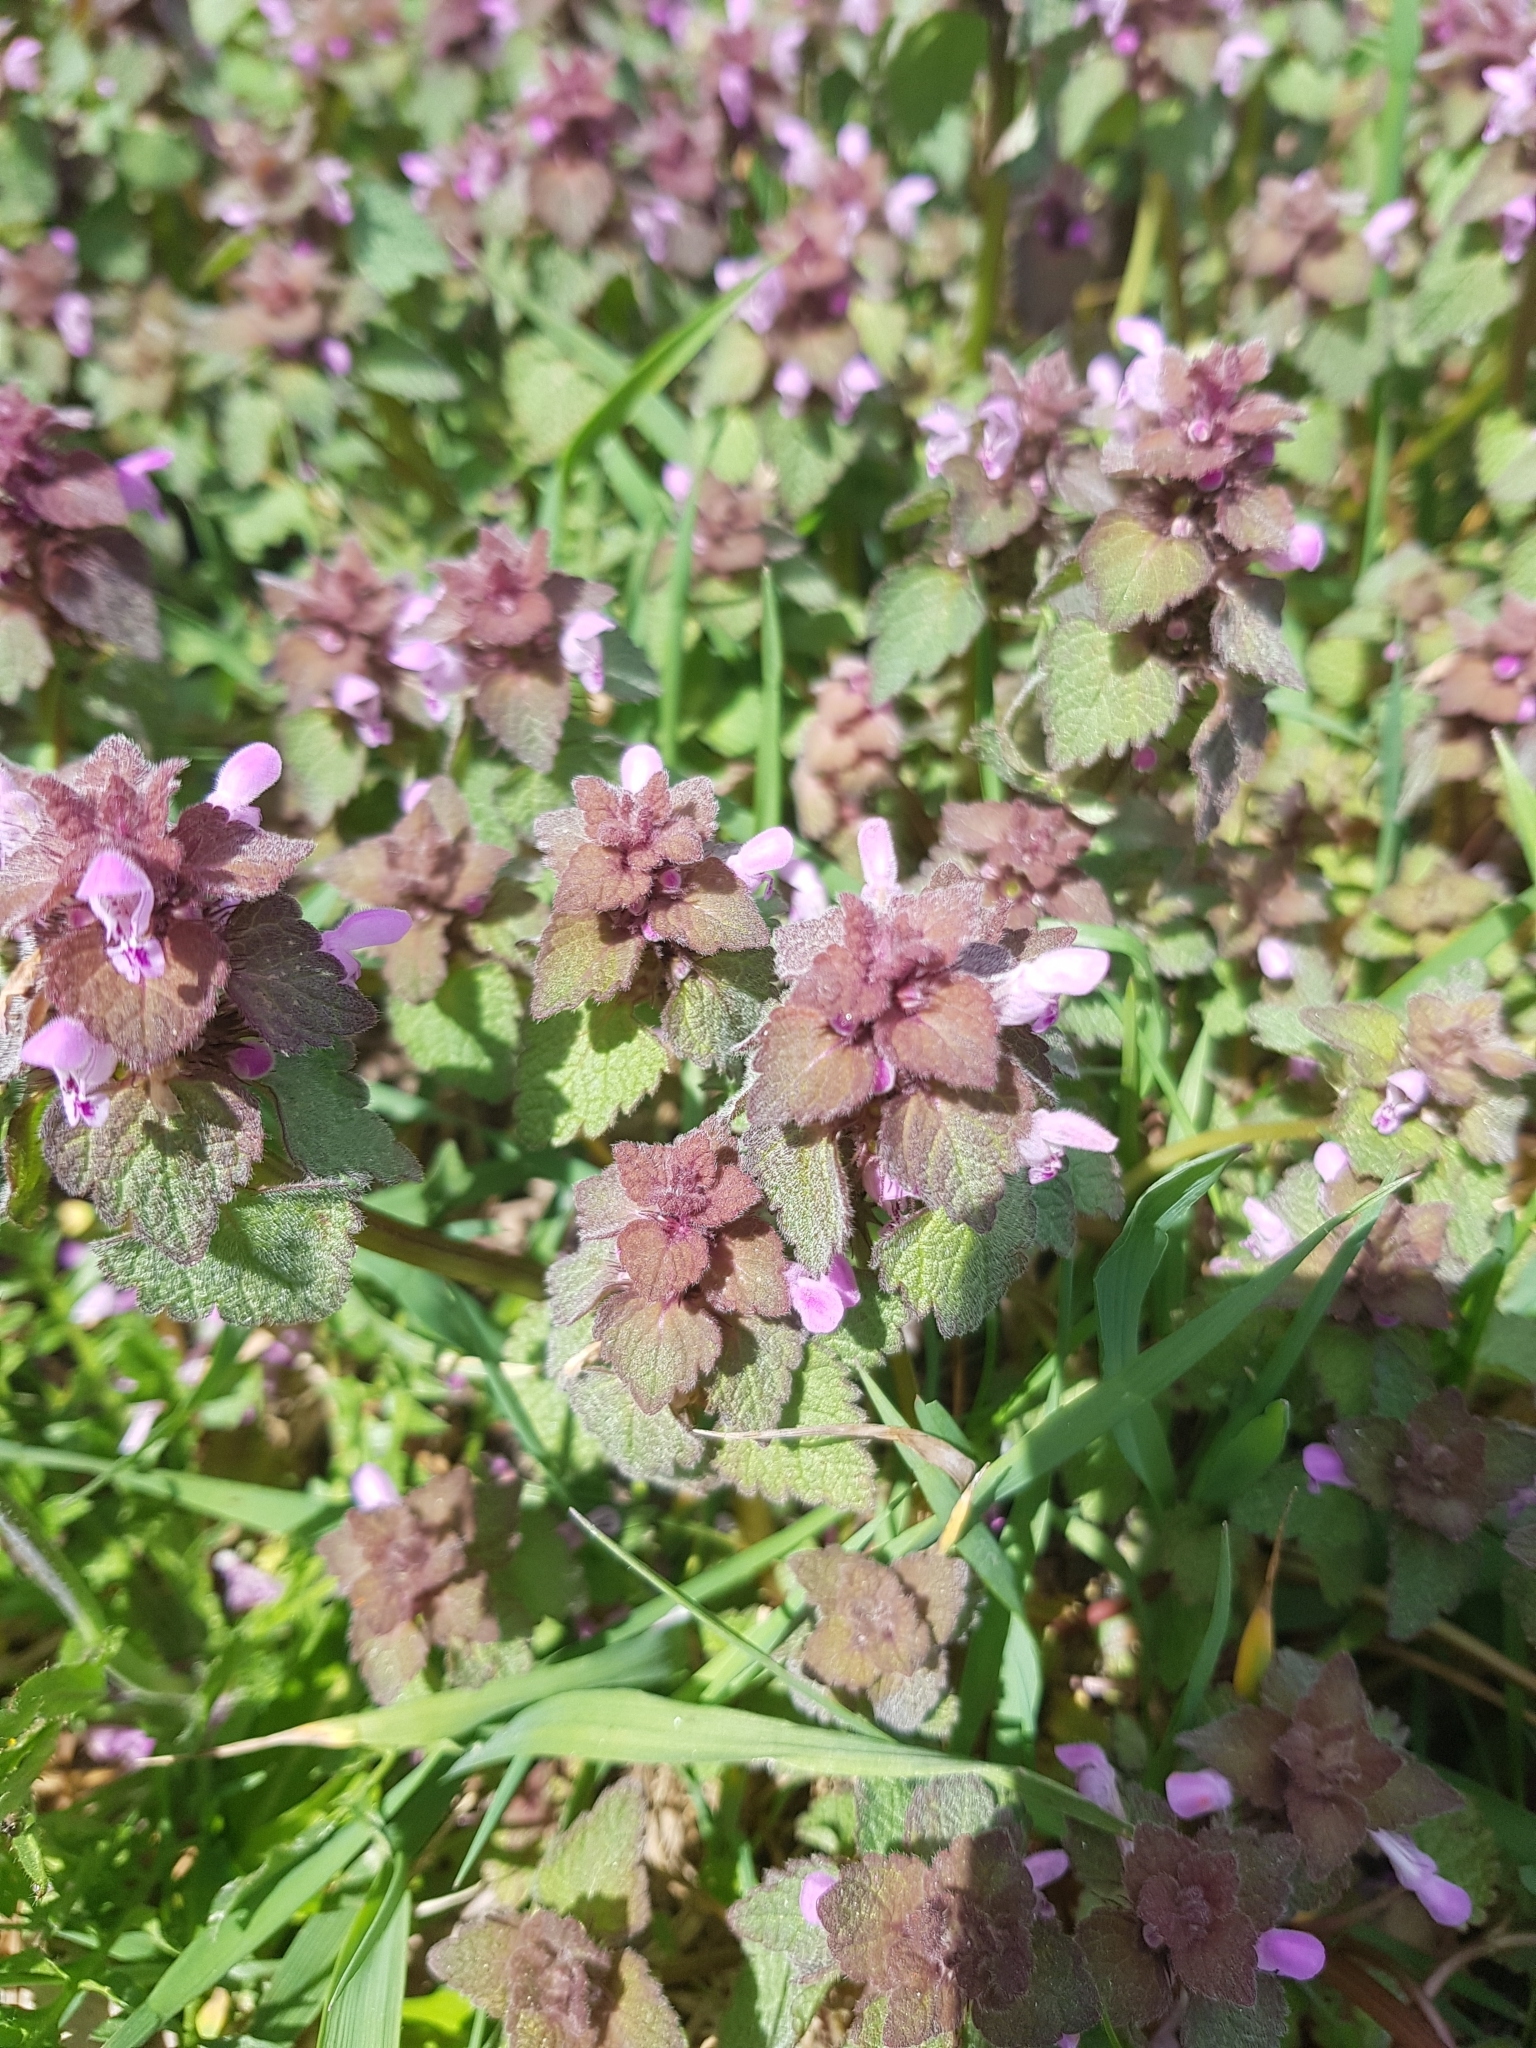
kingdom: Plantae
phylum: Tracheophyta
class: Magnoliopsida
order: Lamiales
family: Lamiaceae
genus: Lamium
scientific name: Lamium purpureum
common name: Red dead-nettle
